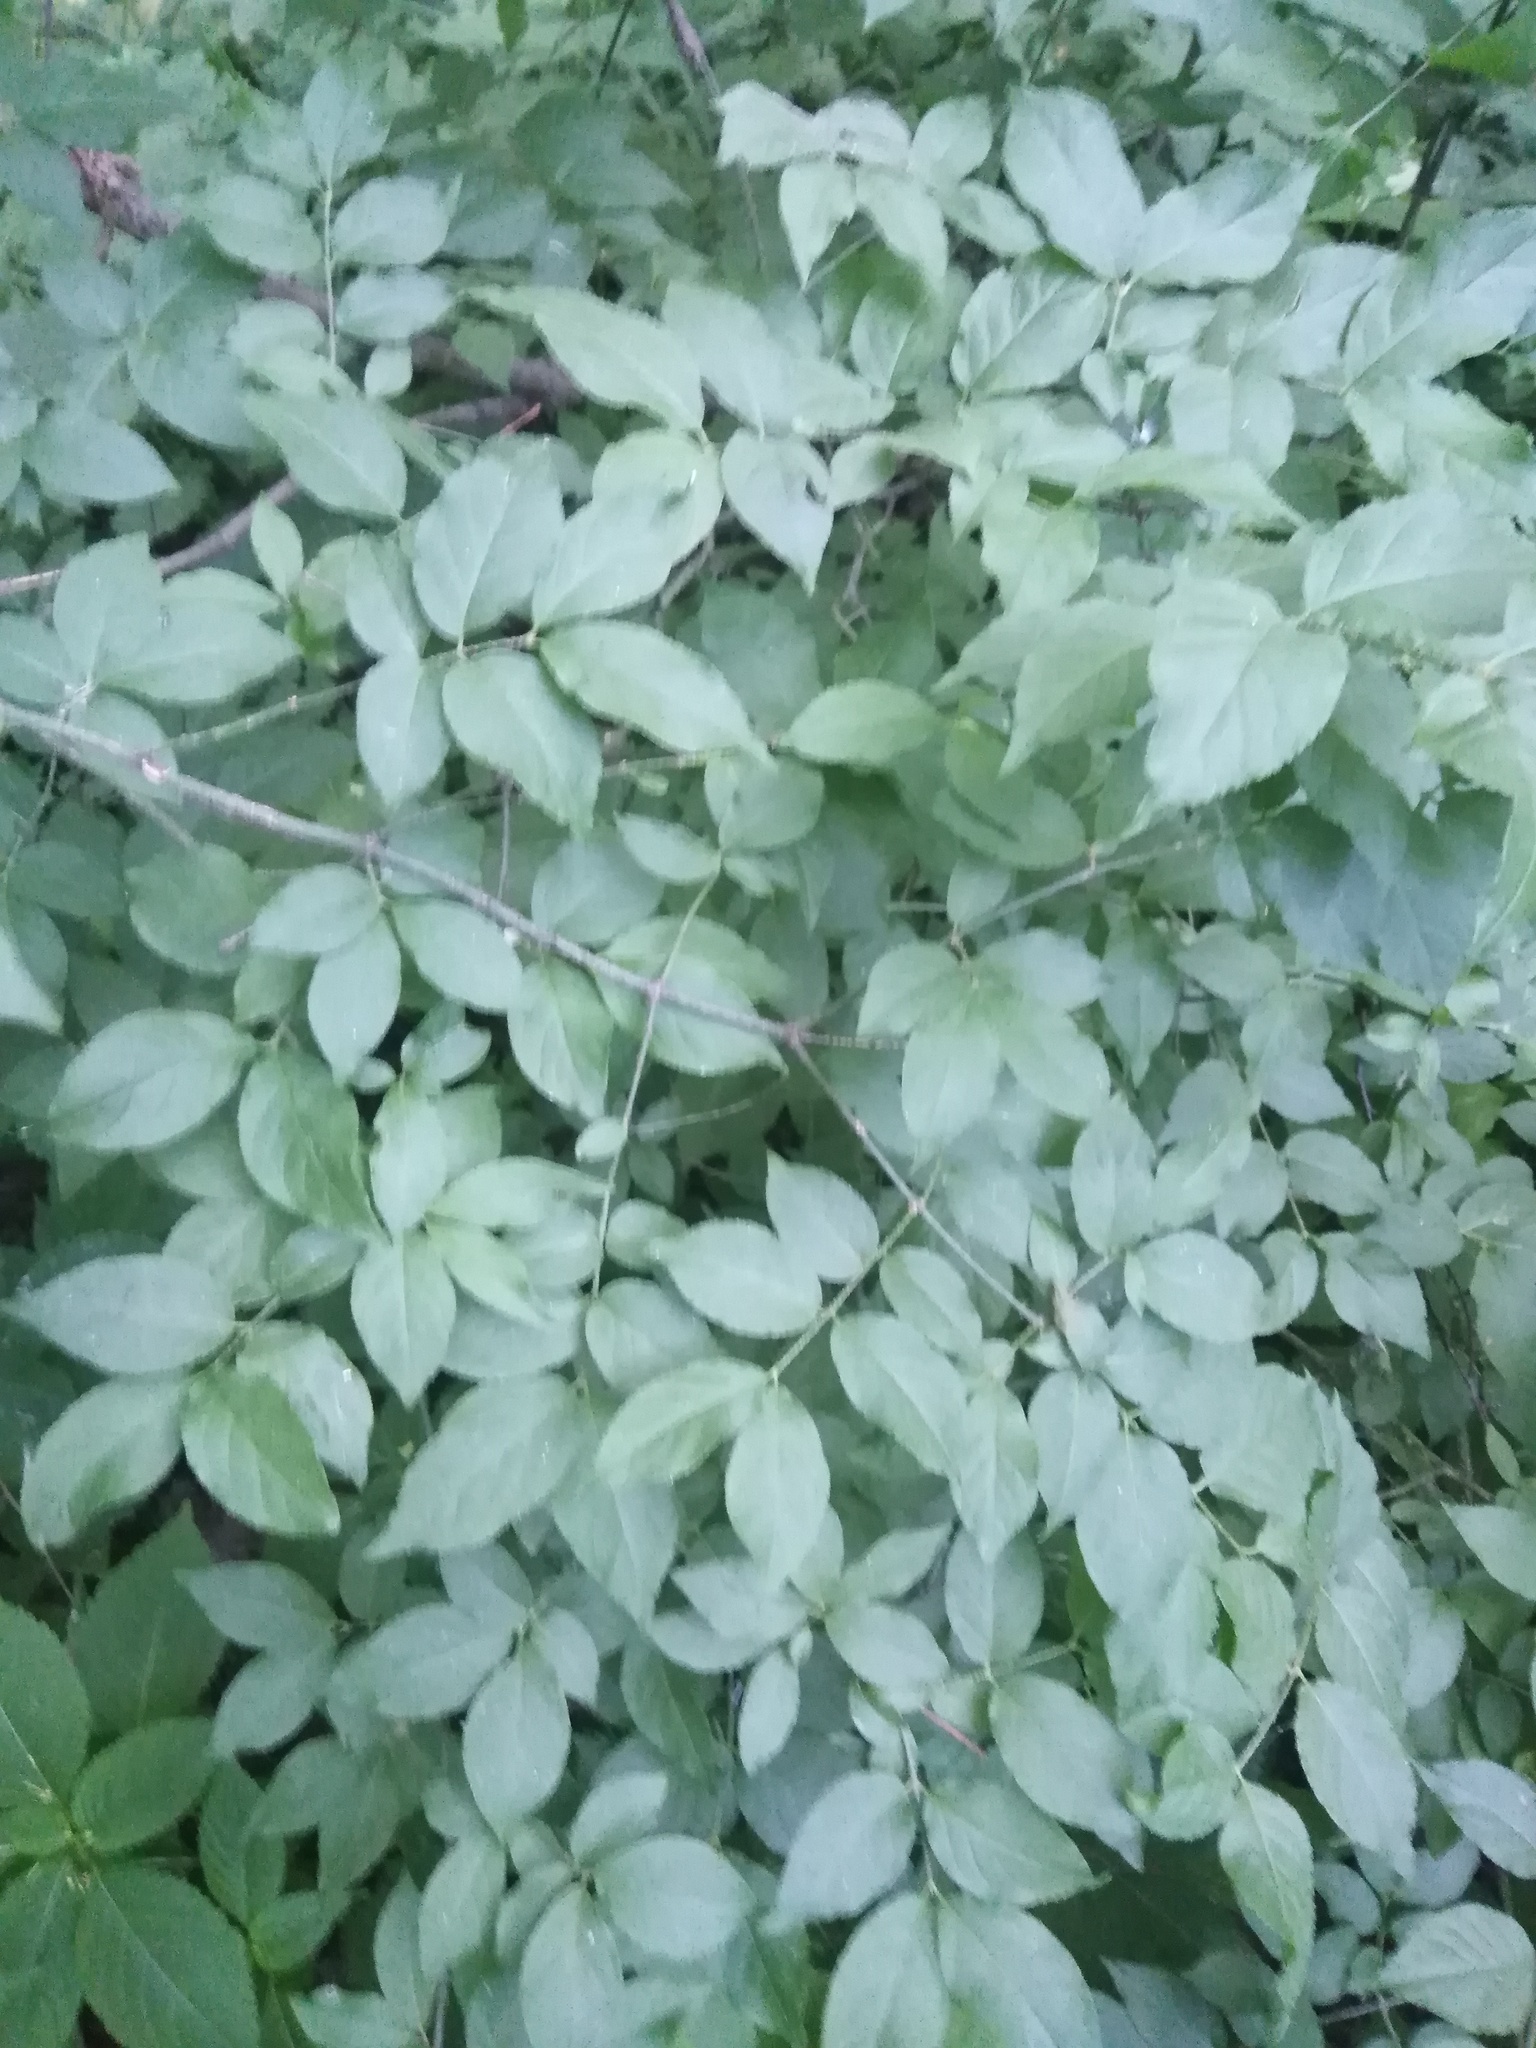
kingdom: Plantae
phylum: Tracheophyta
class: Magnoliopsida
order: Celastrales
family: Celastraceae
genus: Euonymus
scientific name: Euonymus verrucosus
